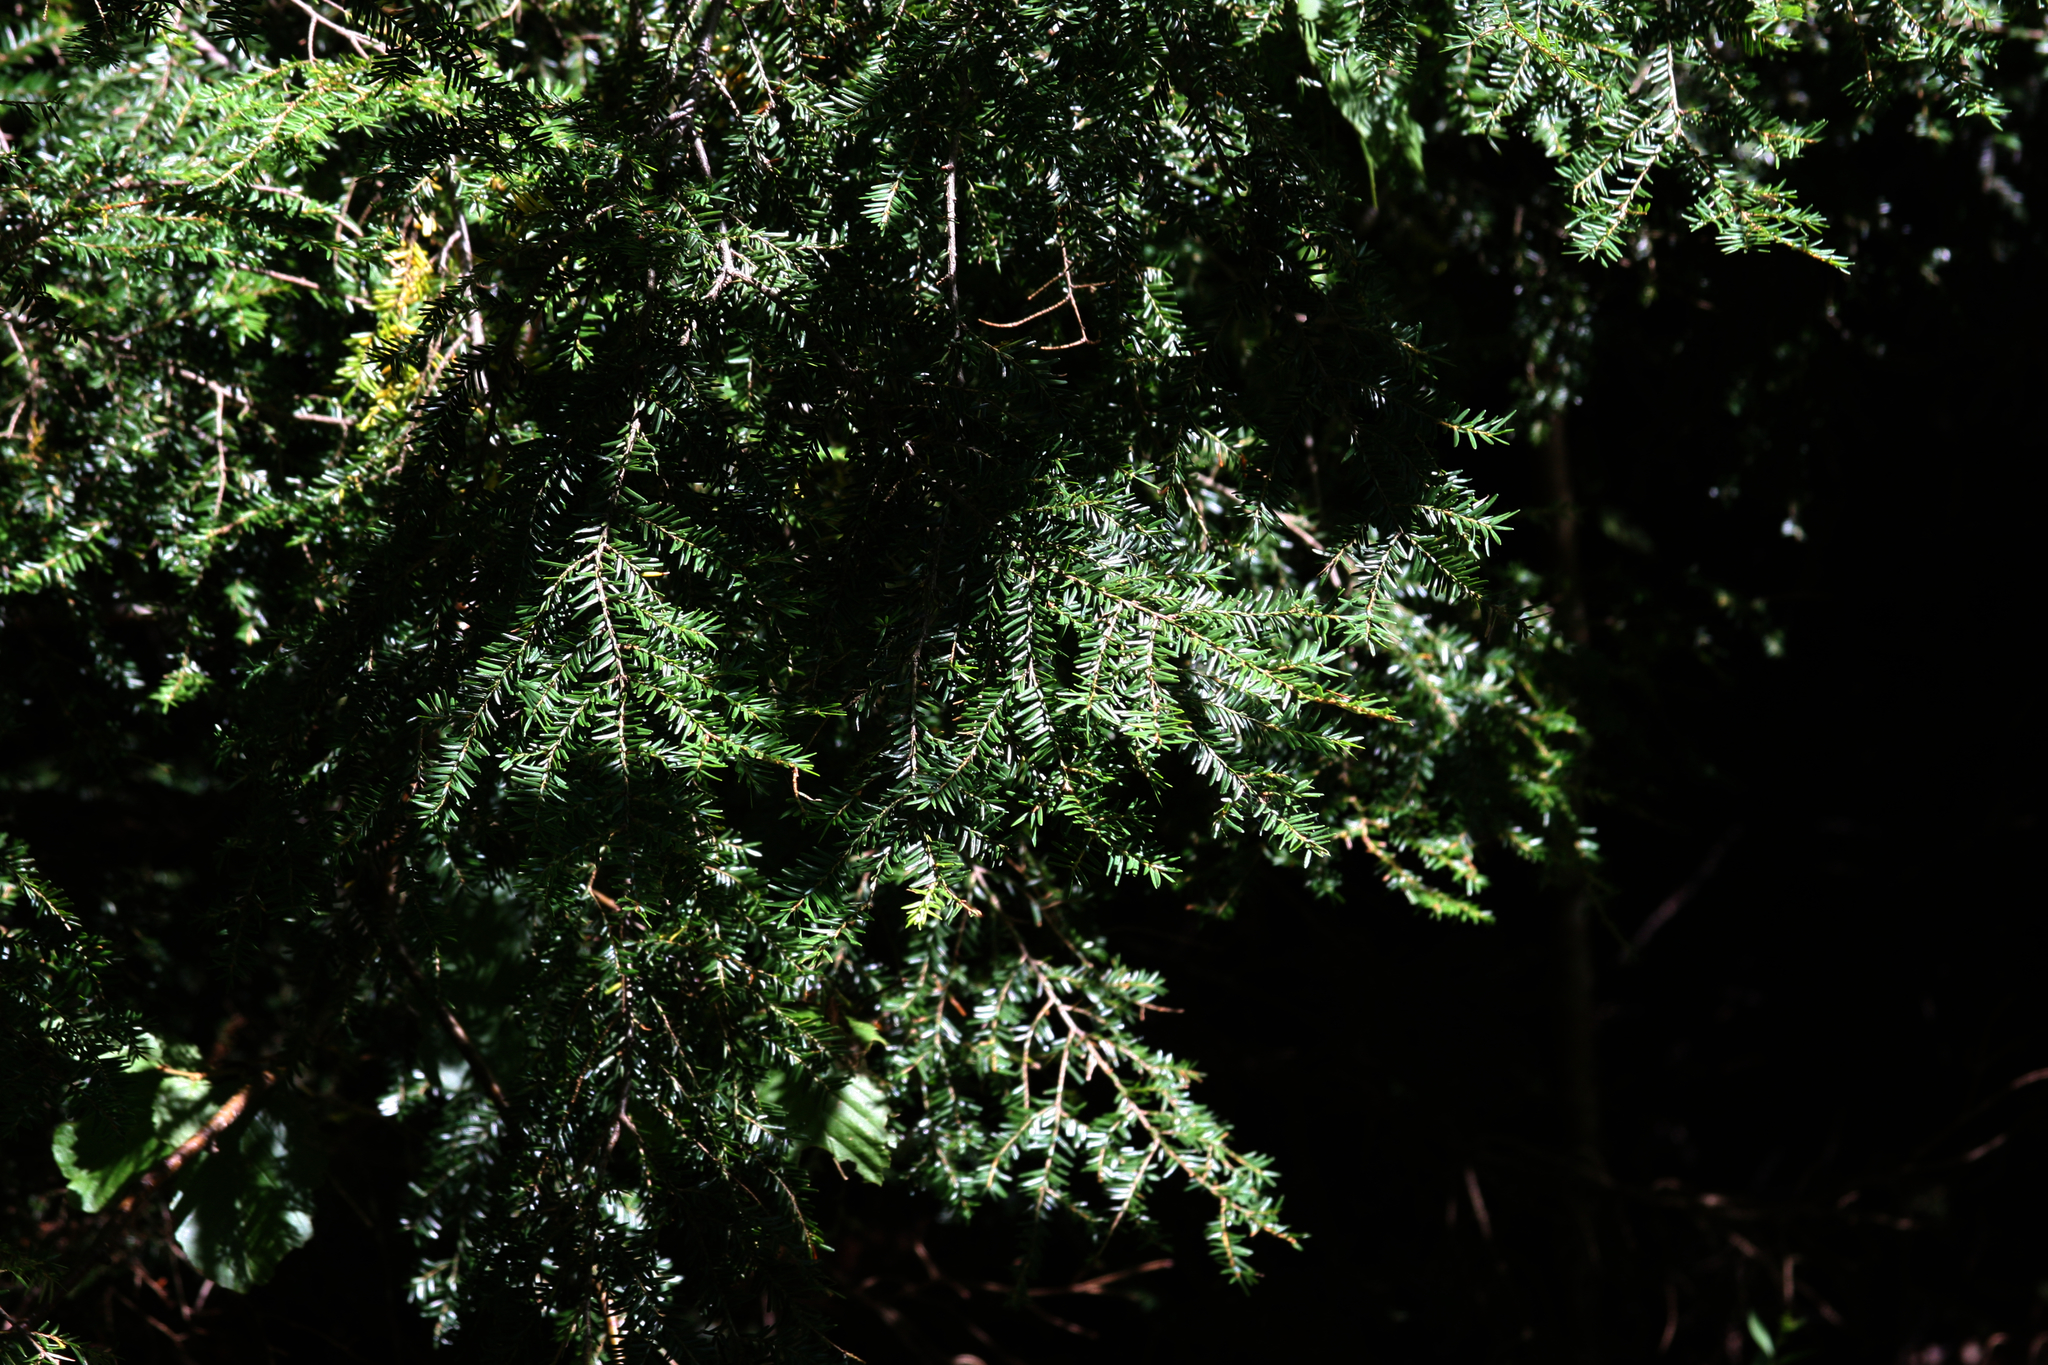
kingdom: Plantae
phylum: Tracheophyta
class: Pinopsida
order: Pinales
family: Pinaceae
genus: Tsuga
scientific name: Tsuga canadensis
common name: Eastern hemlock
